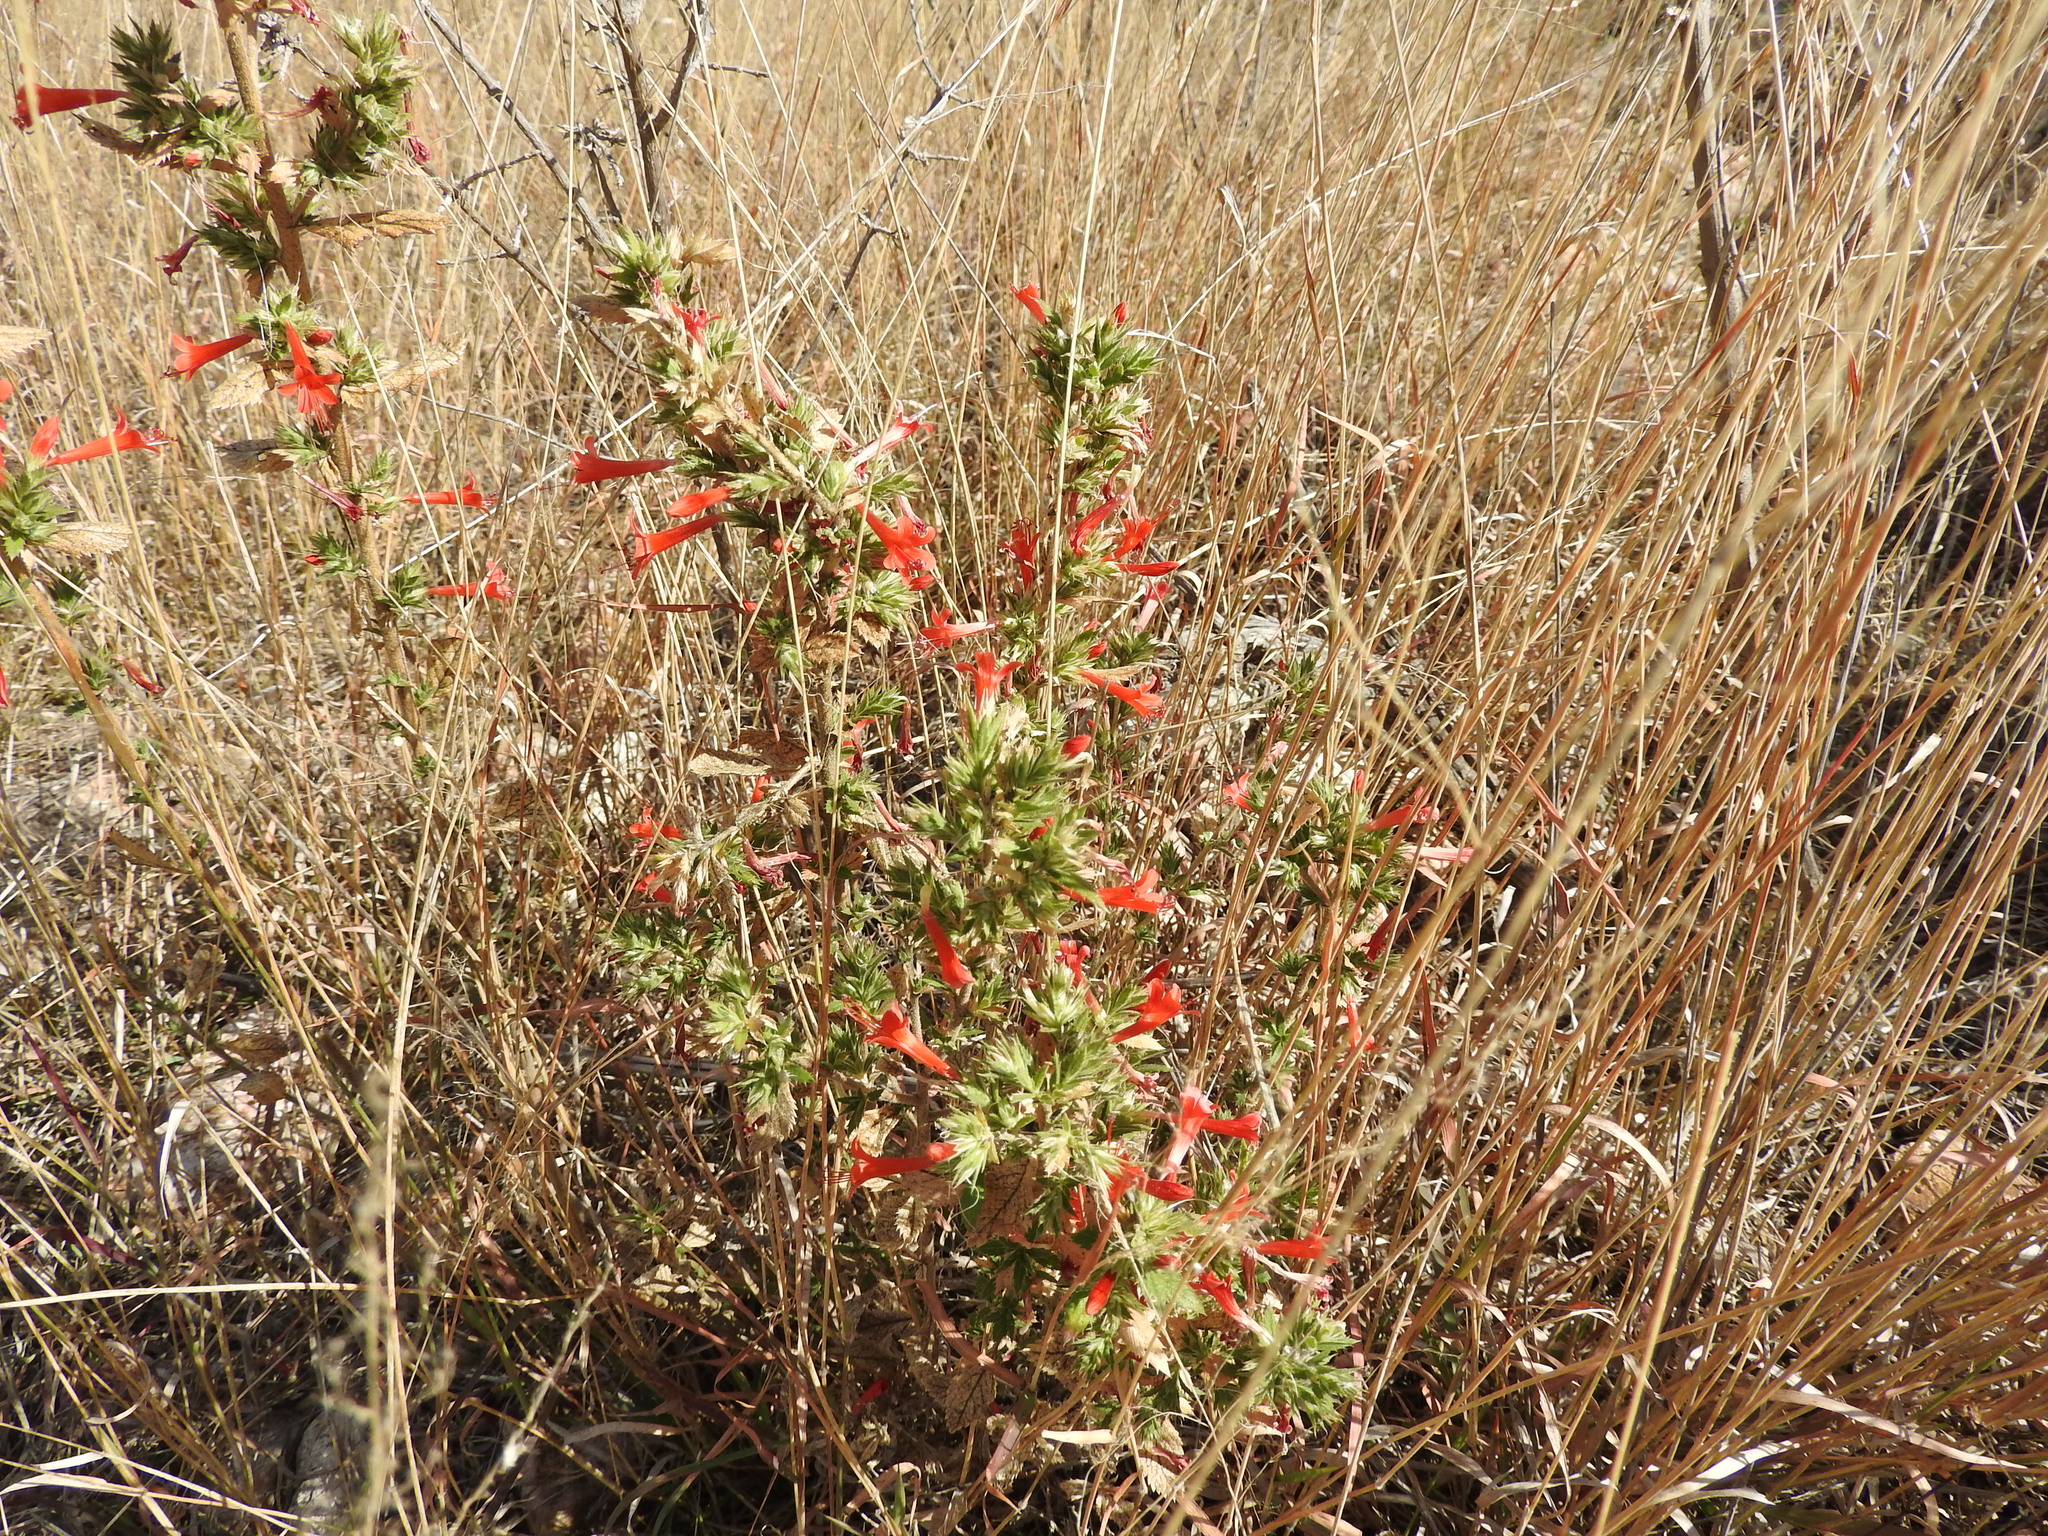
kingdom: Plantae
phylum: Tracheophyta
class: Magnoliopsida
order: Ericales
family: Polemoniaceae
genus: Loeselia
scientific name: Loeselia mexicana
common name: Mexican false calico
